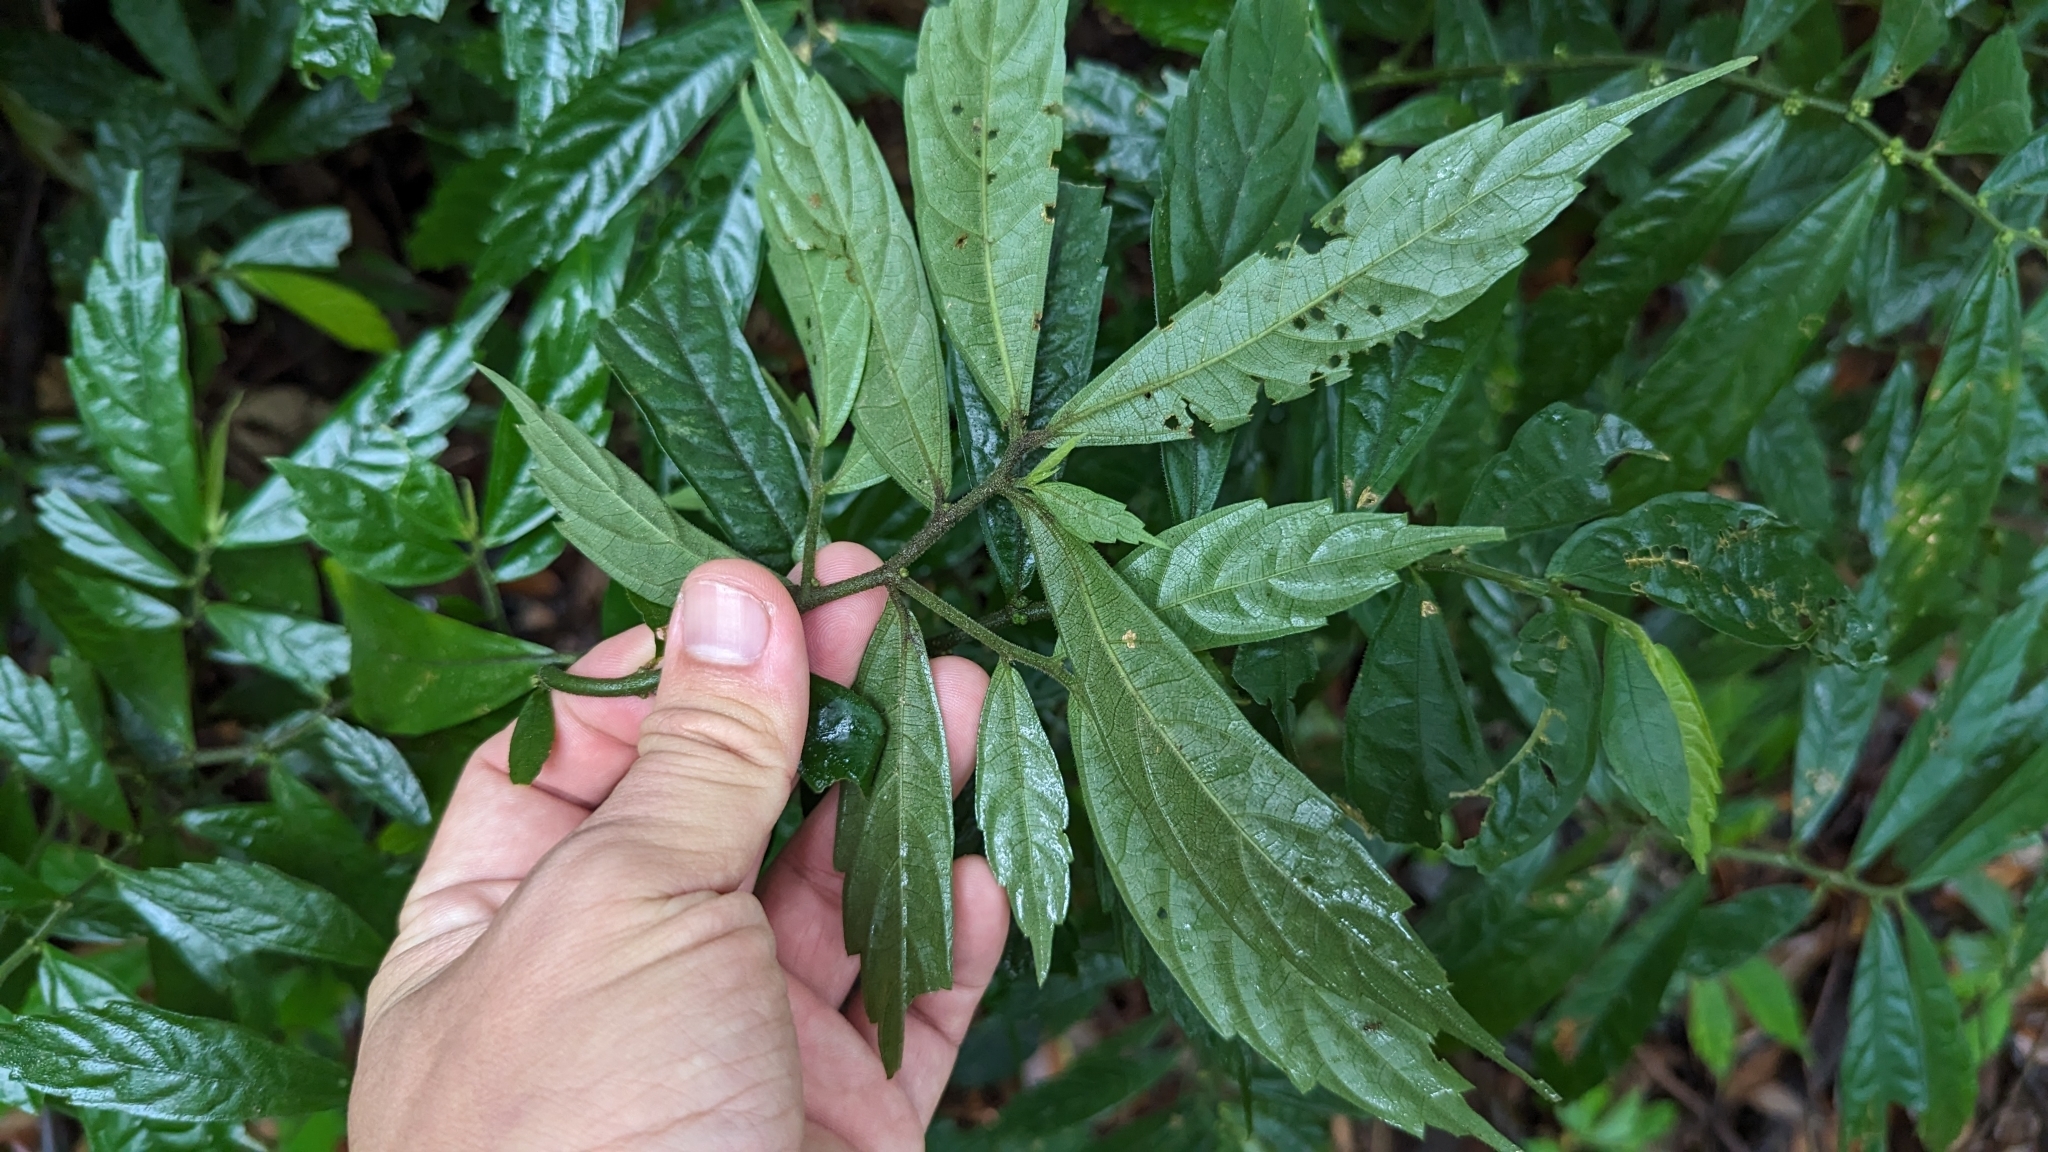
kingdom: Plantae
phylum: Tracheophyta
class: Magnoliopsida
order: Rosales
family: Urticaceae
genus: Elatostema
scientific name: Elatostema lineolatum
